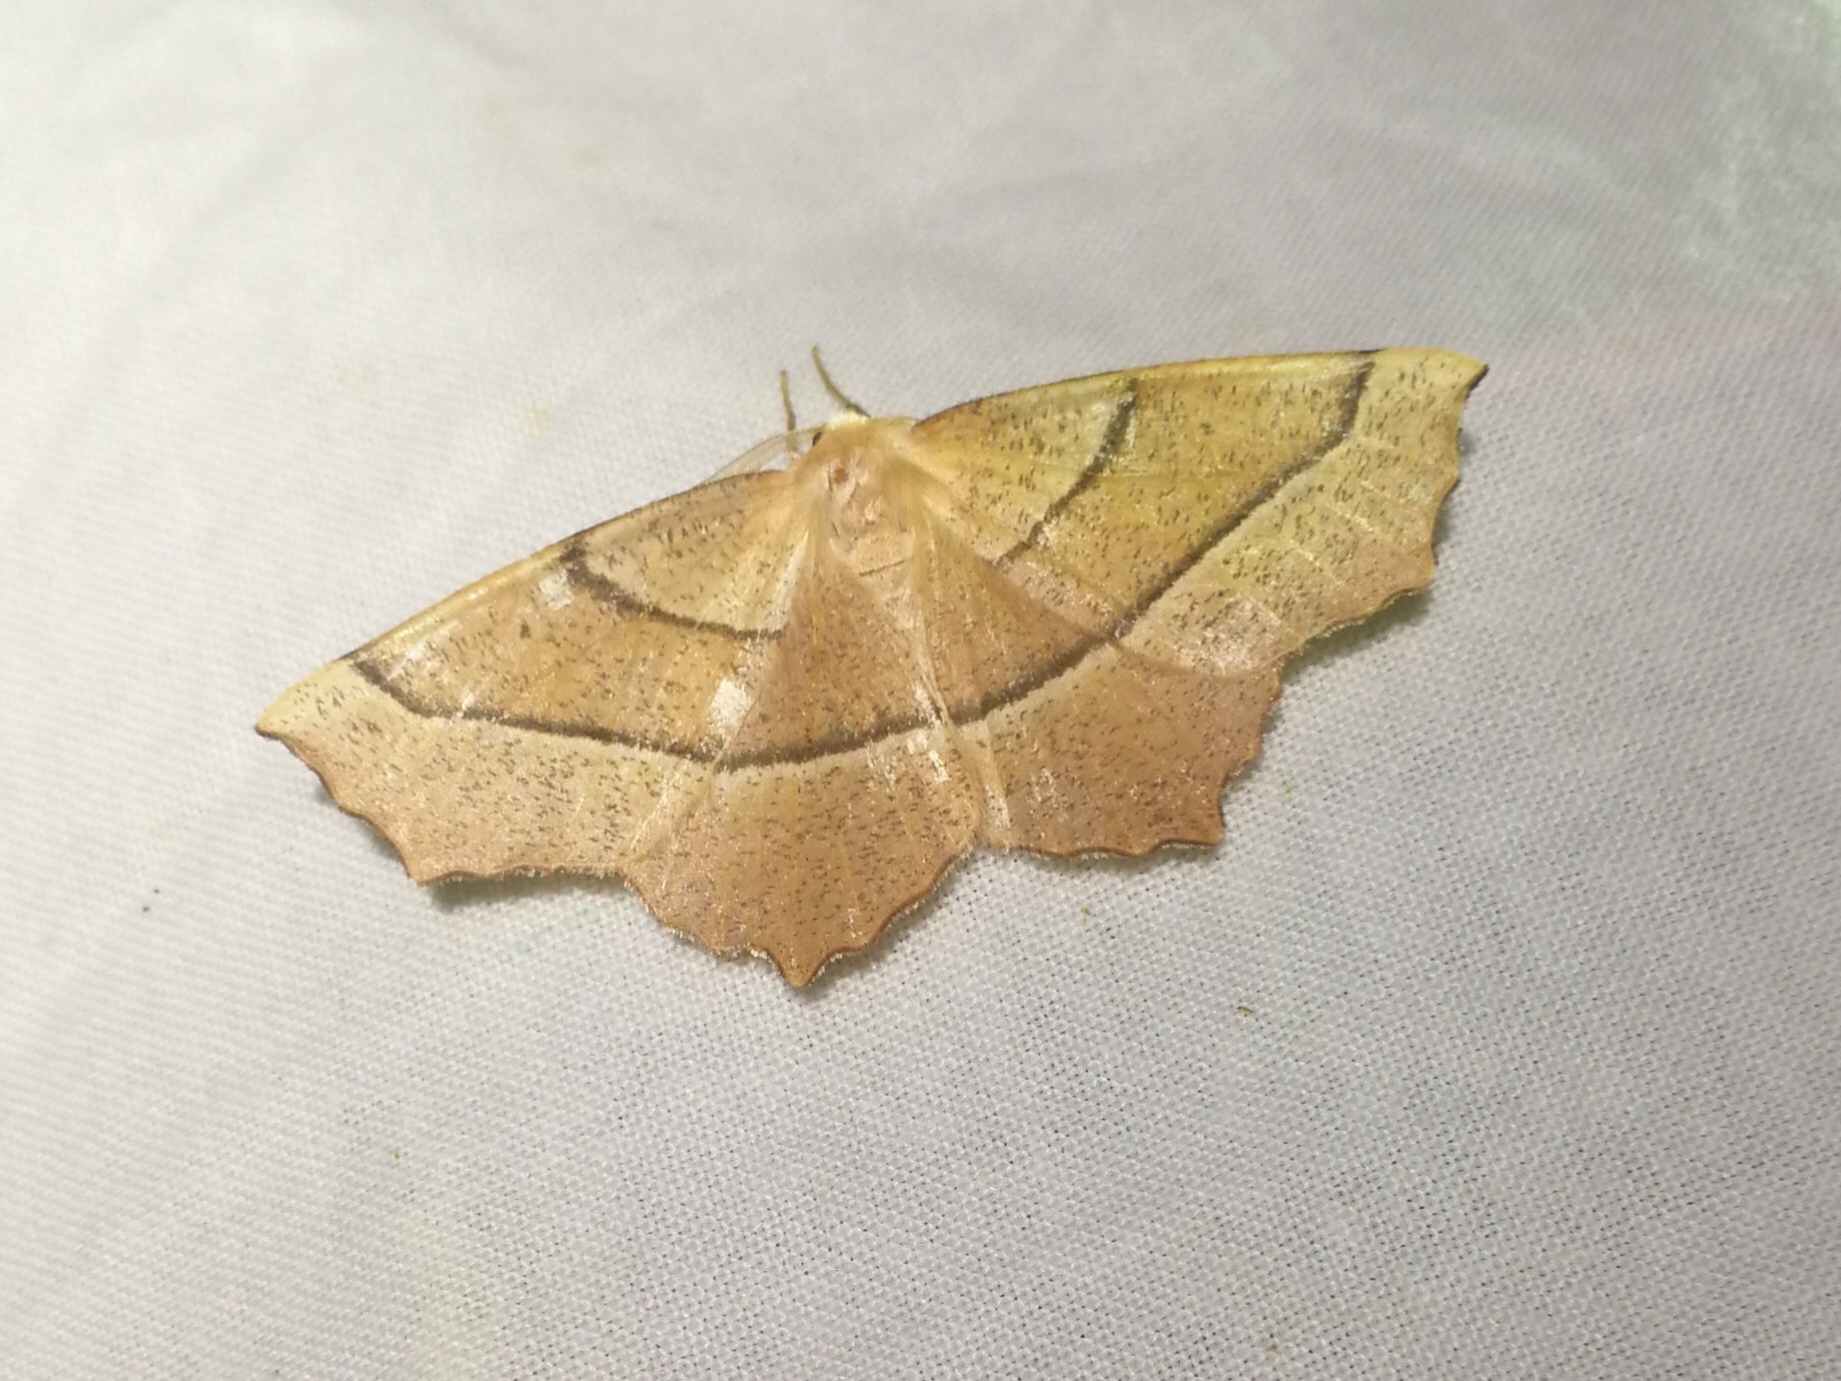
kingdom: Animalia
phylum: Arthropoda
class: Insecta
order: Lepidoptera
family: Geometridae
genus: Gerinia
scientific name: Gerinia honoraria
